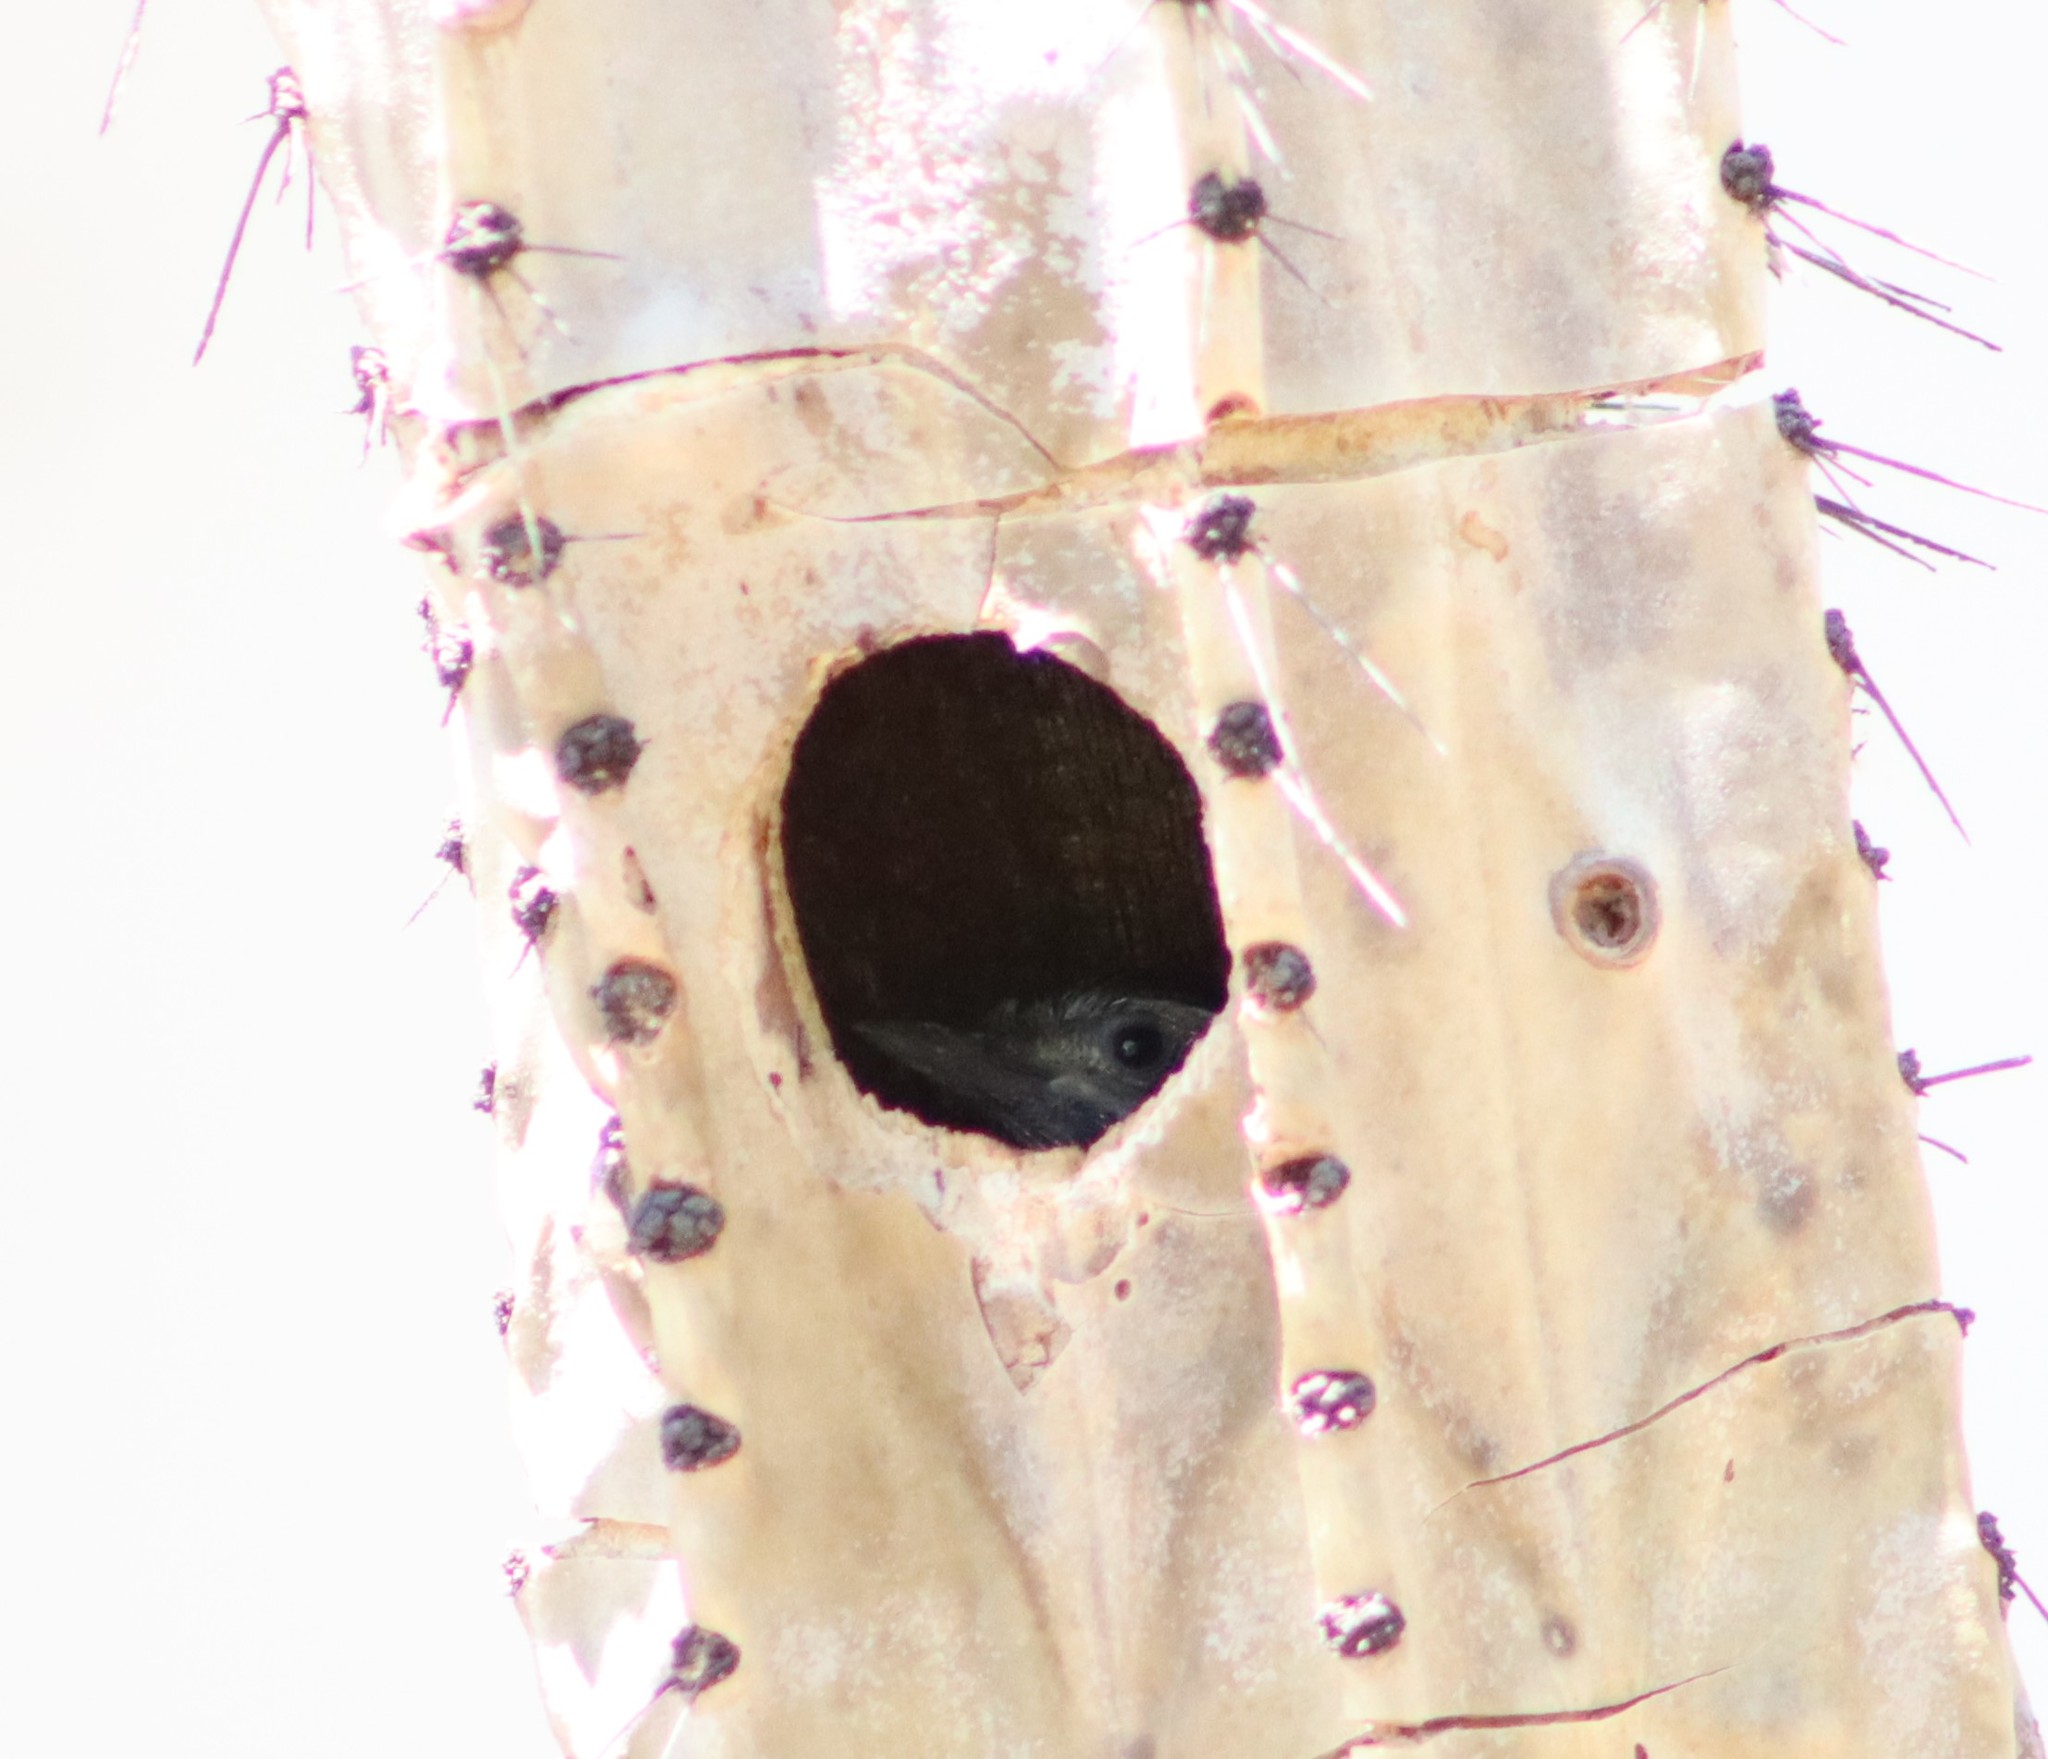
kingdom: Animalia
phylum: Chordata
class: Aves
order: Piciformes
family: Picidae
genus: Dryobates
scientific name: Dryobates scalaris
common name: Ladder-backed woodpecker
